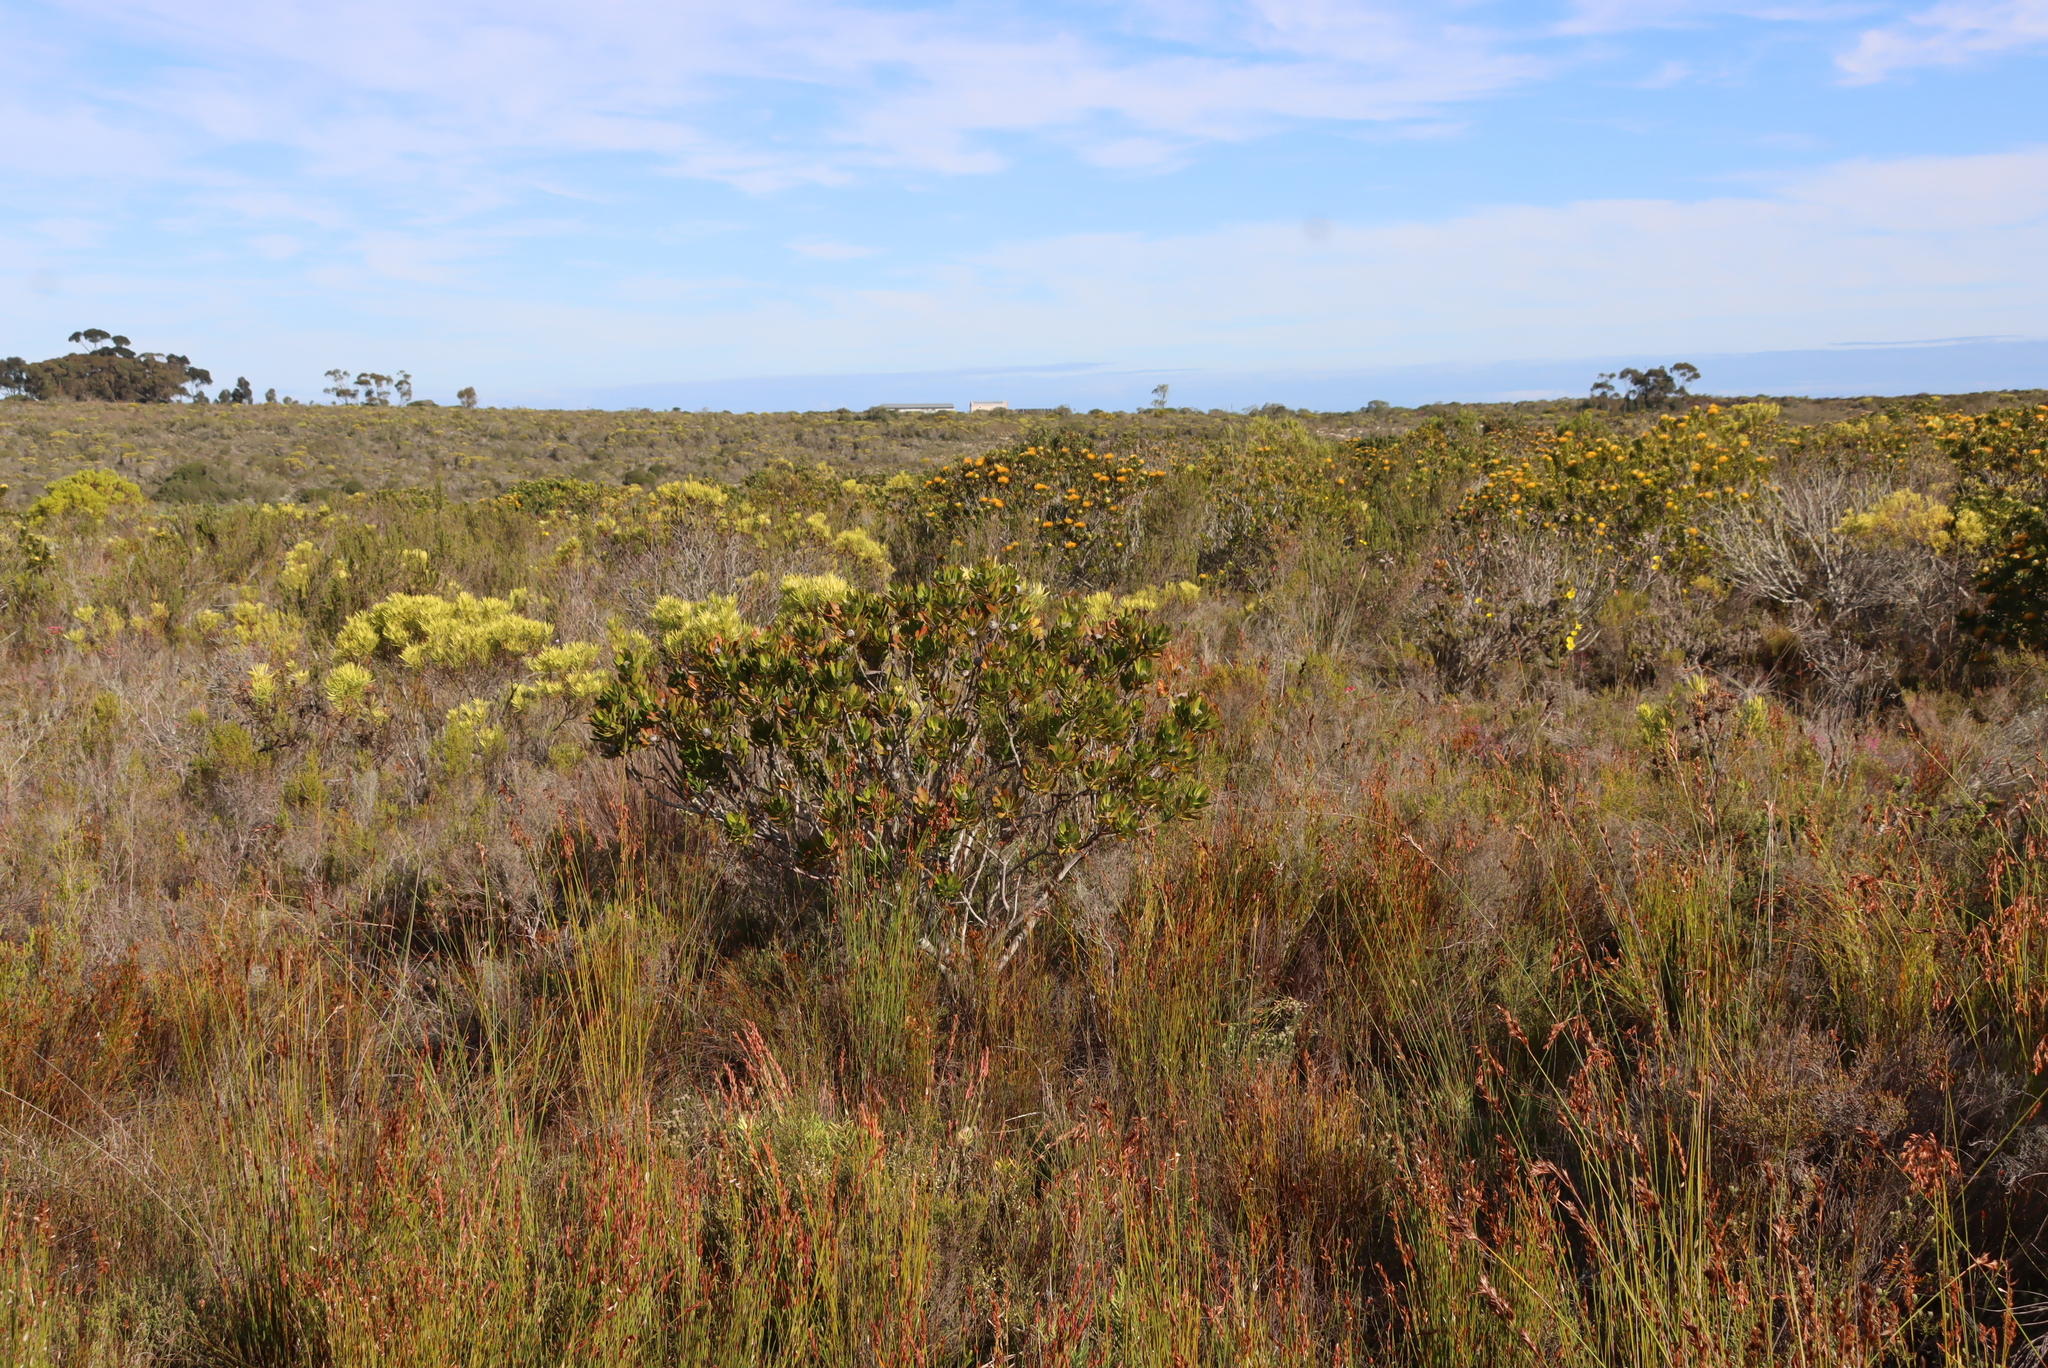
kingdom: Plantae
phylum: Tracheophyta
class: Magnoliopsida
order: Proteales
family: Proteaceae
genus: Leucospermum
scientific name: Leucospermum praecox
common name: Mossel bay pincushion
